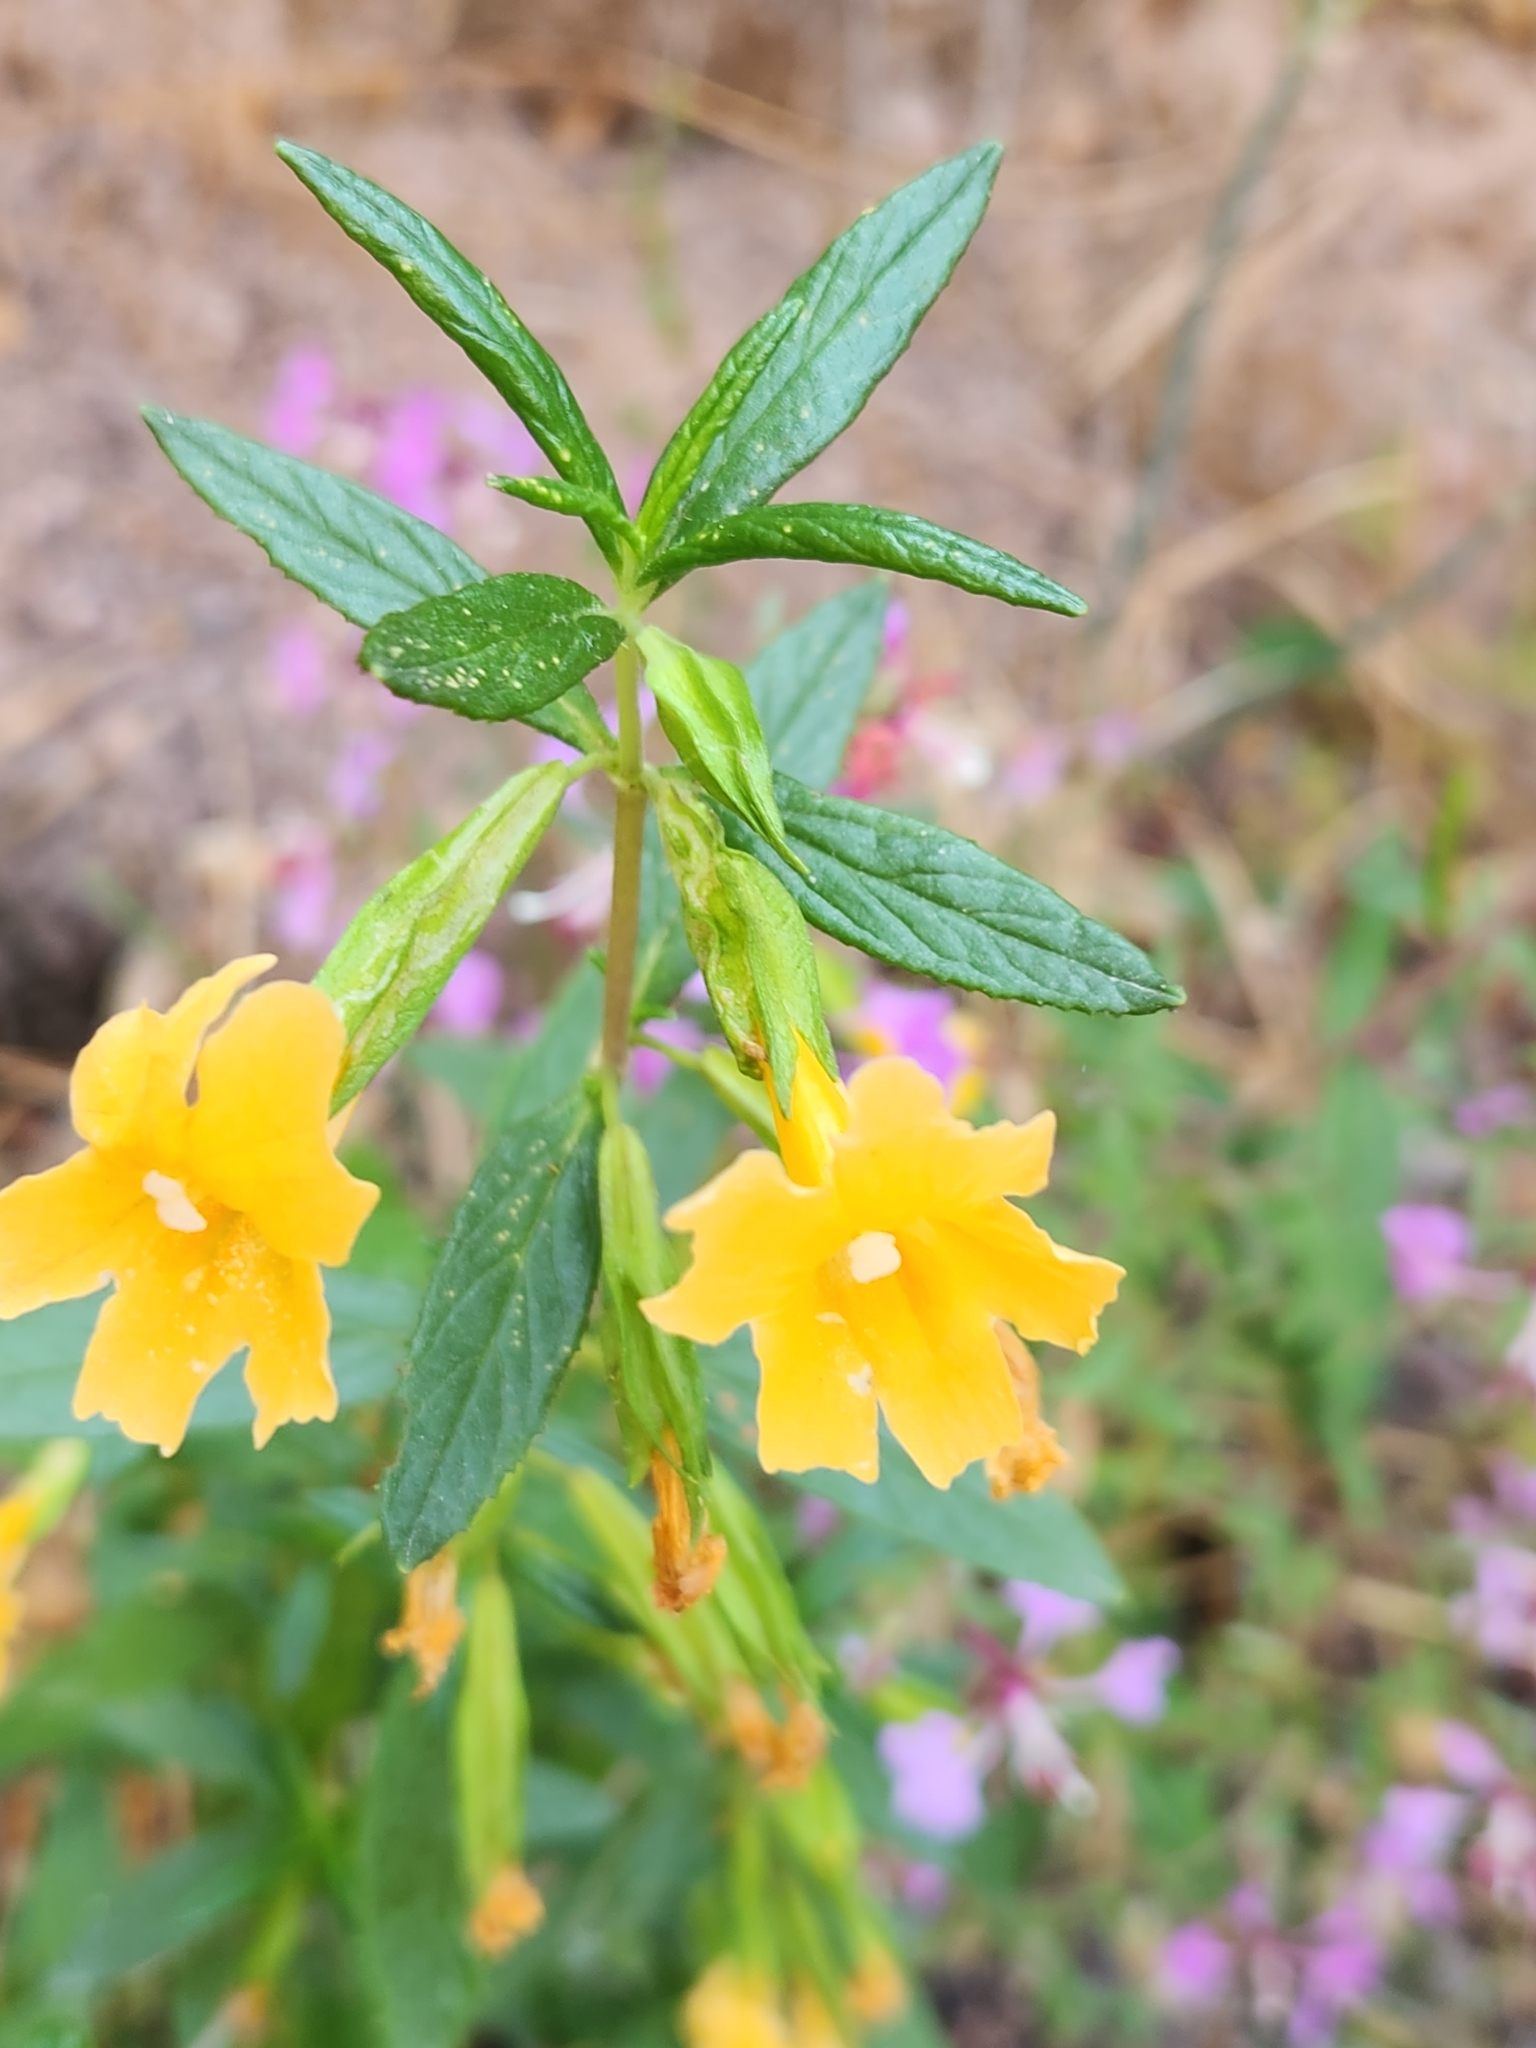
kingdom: Plantae
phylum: Tracheophyta
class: Magnoliopsida
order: Lamiales
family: Phrymaceae
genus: Diplacus
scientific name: Diplacus aurantiacus
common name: Bush monkey-flower
